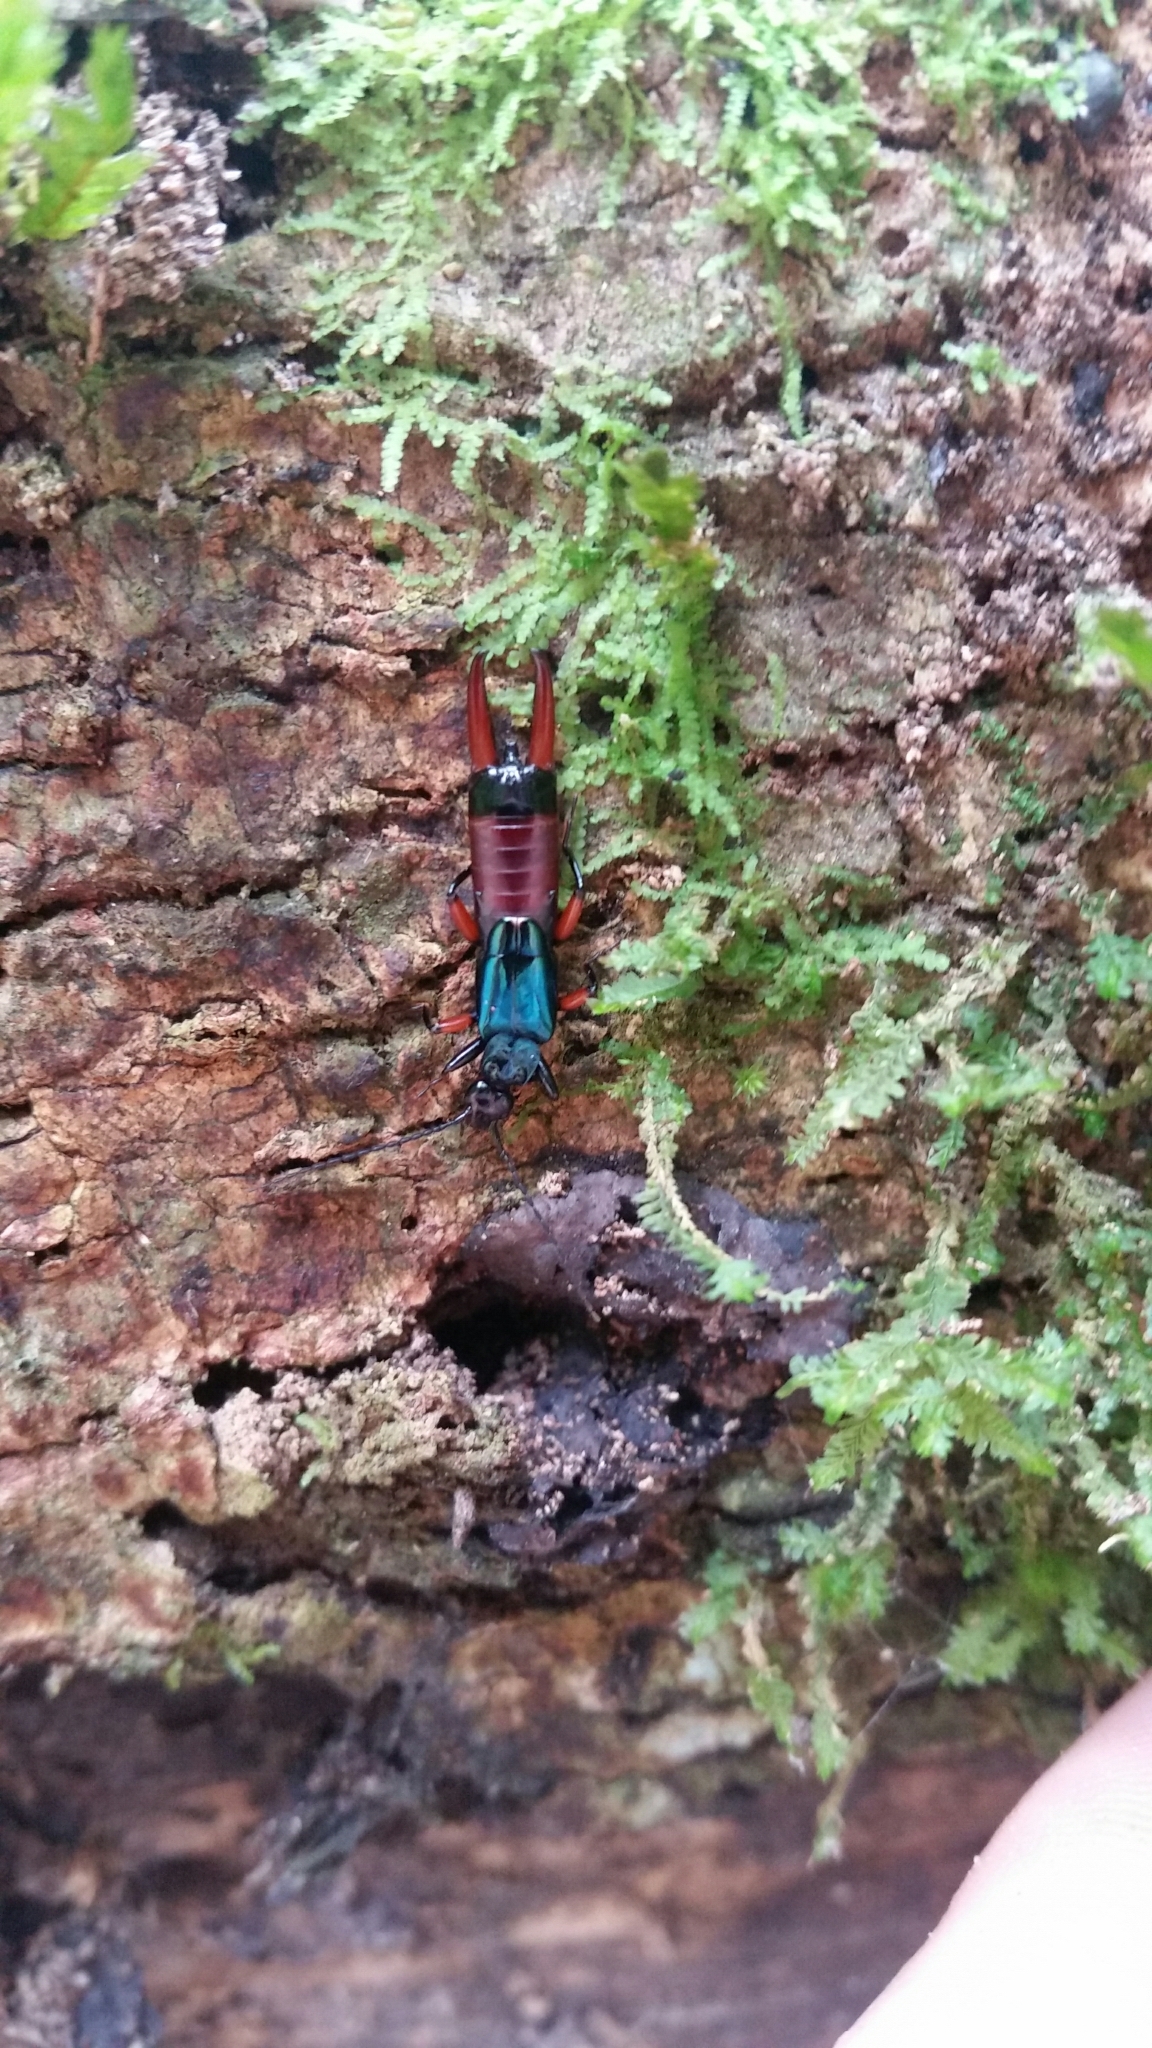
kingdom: Animalia
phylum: Arthropoda
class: Insecta
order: Dermaptera
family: Chelisochidae
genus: Adiathetus
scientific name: Adiathetus metallicus
